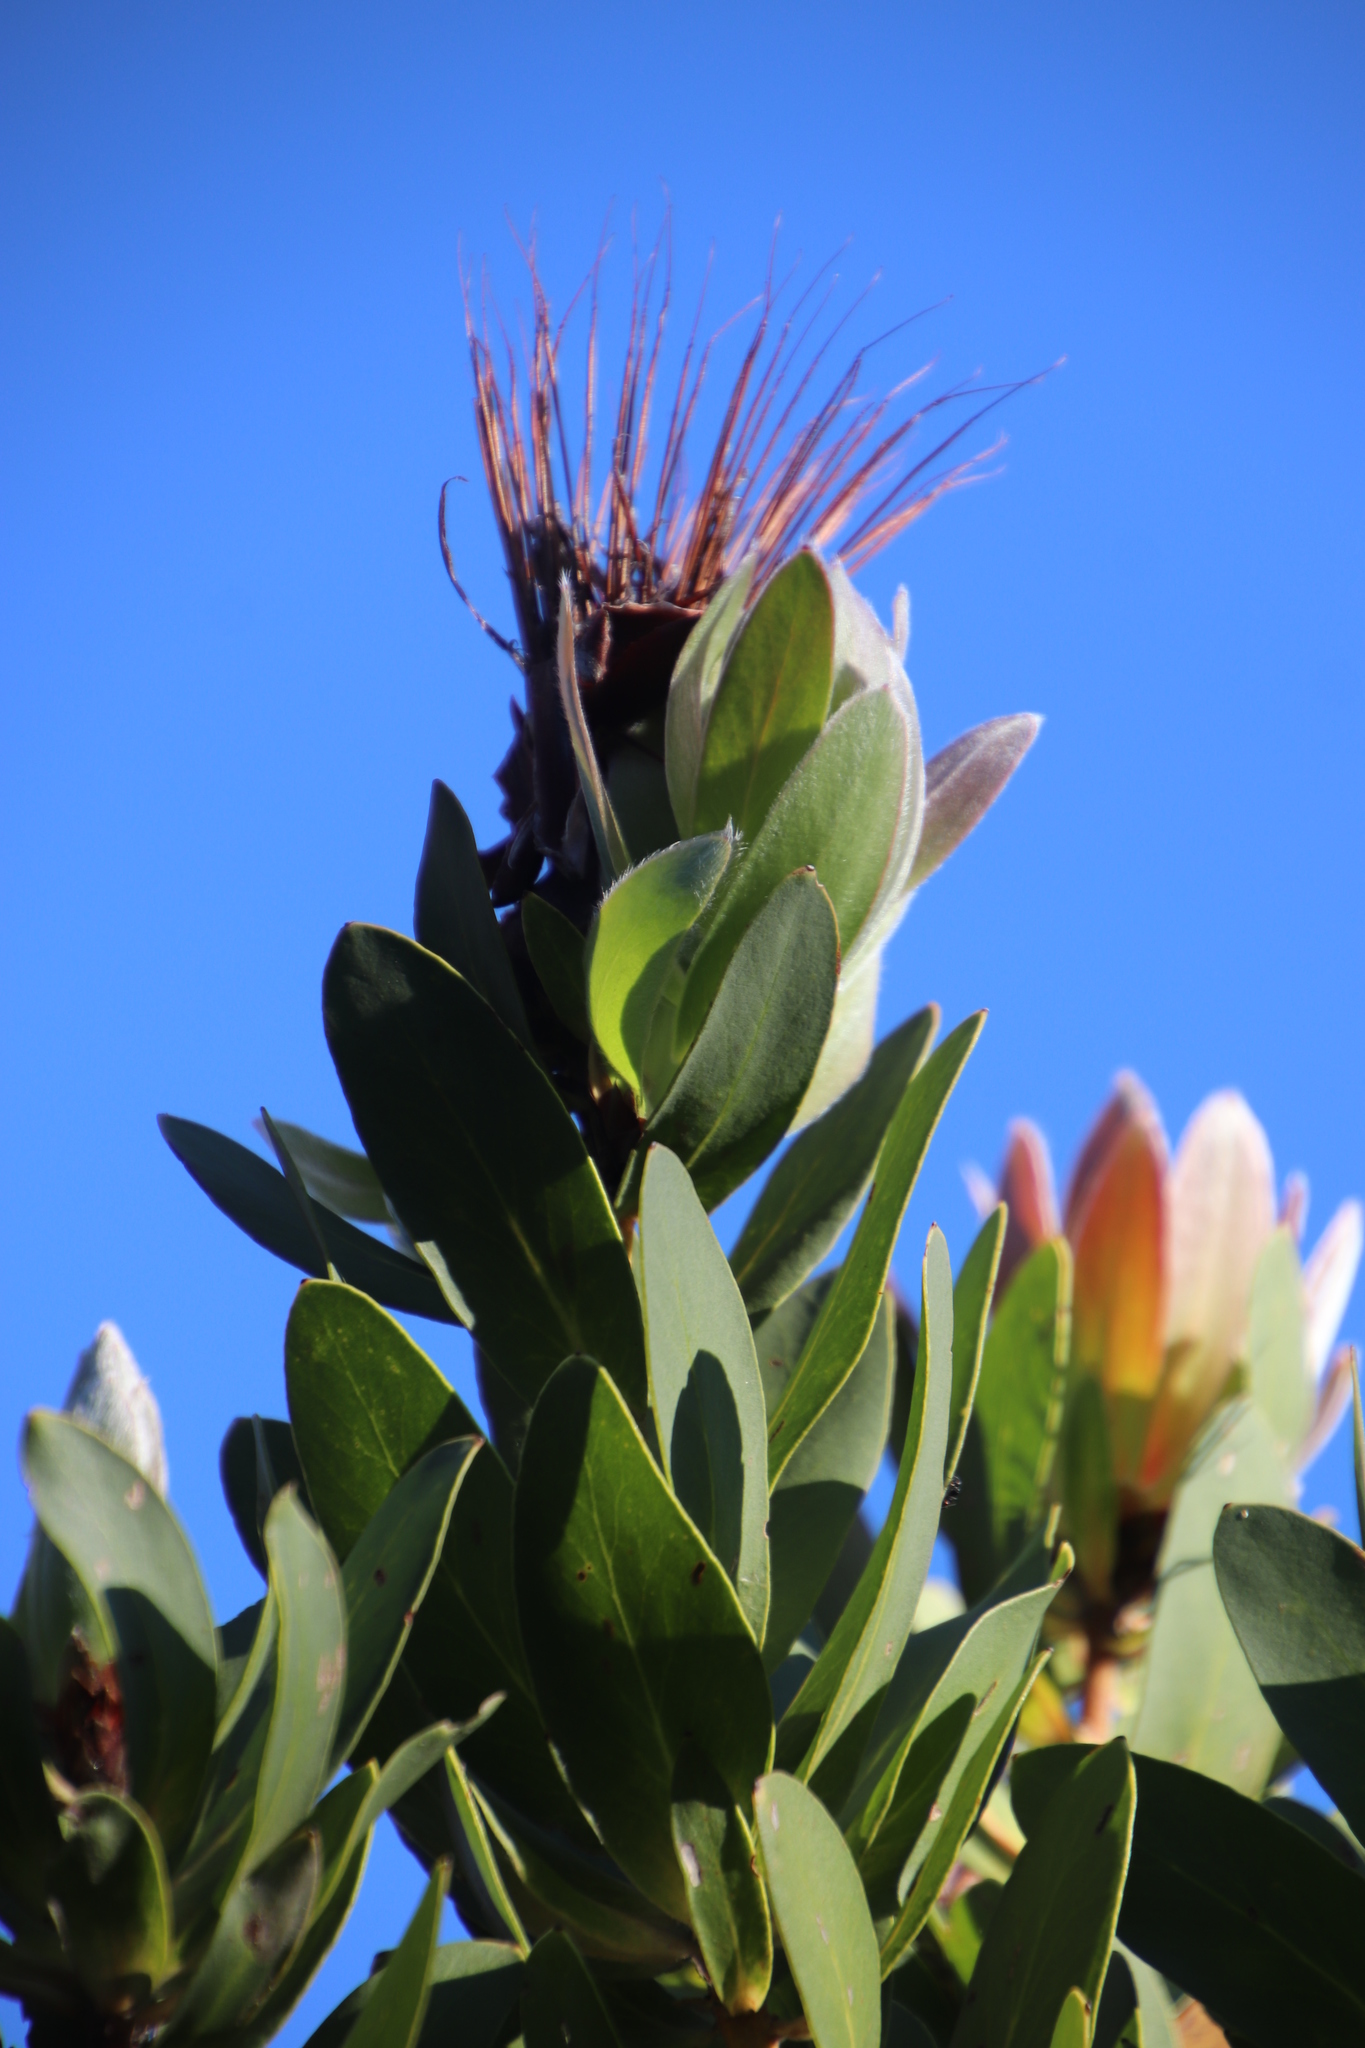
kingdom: Plantae
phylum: Tracheophyta
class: Magnoliopsida
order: Proteales
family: Proteaceae
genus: Protea
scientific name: Protea aurea
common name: Shuttlecock sugarbush
